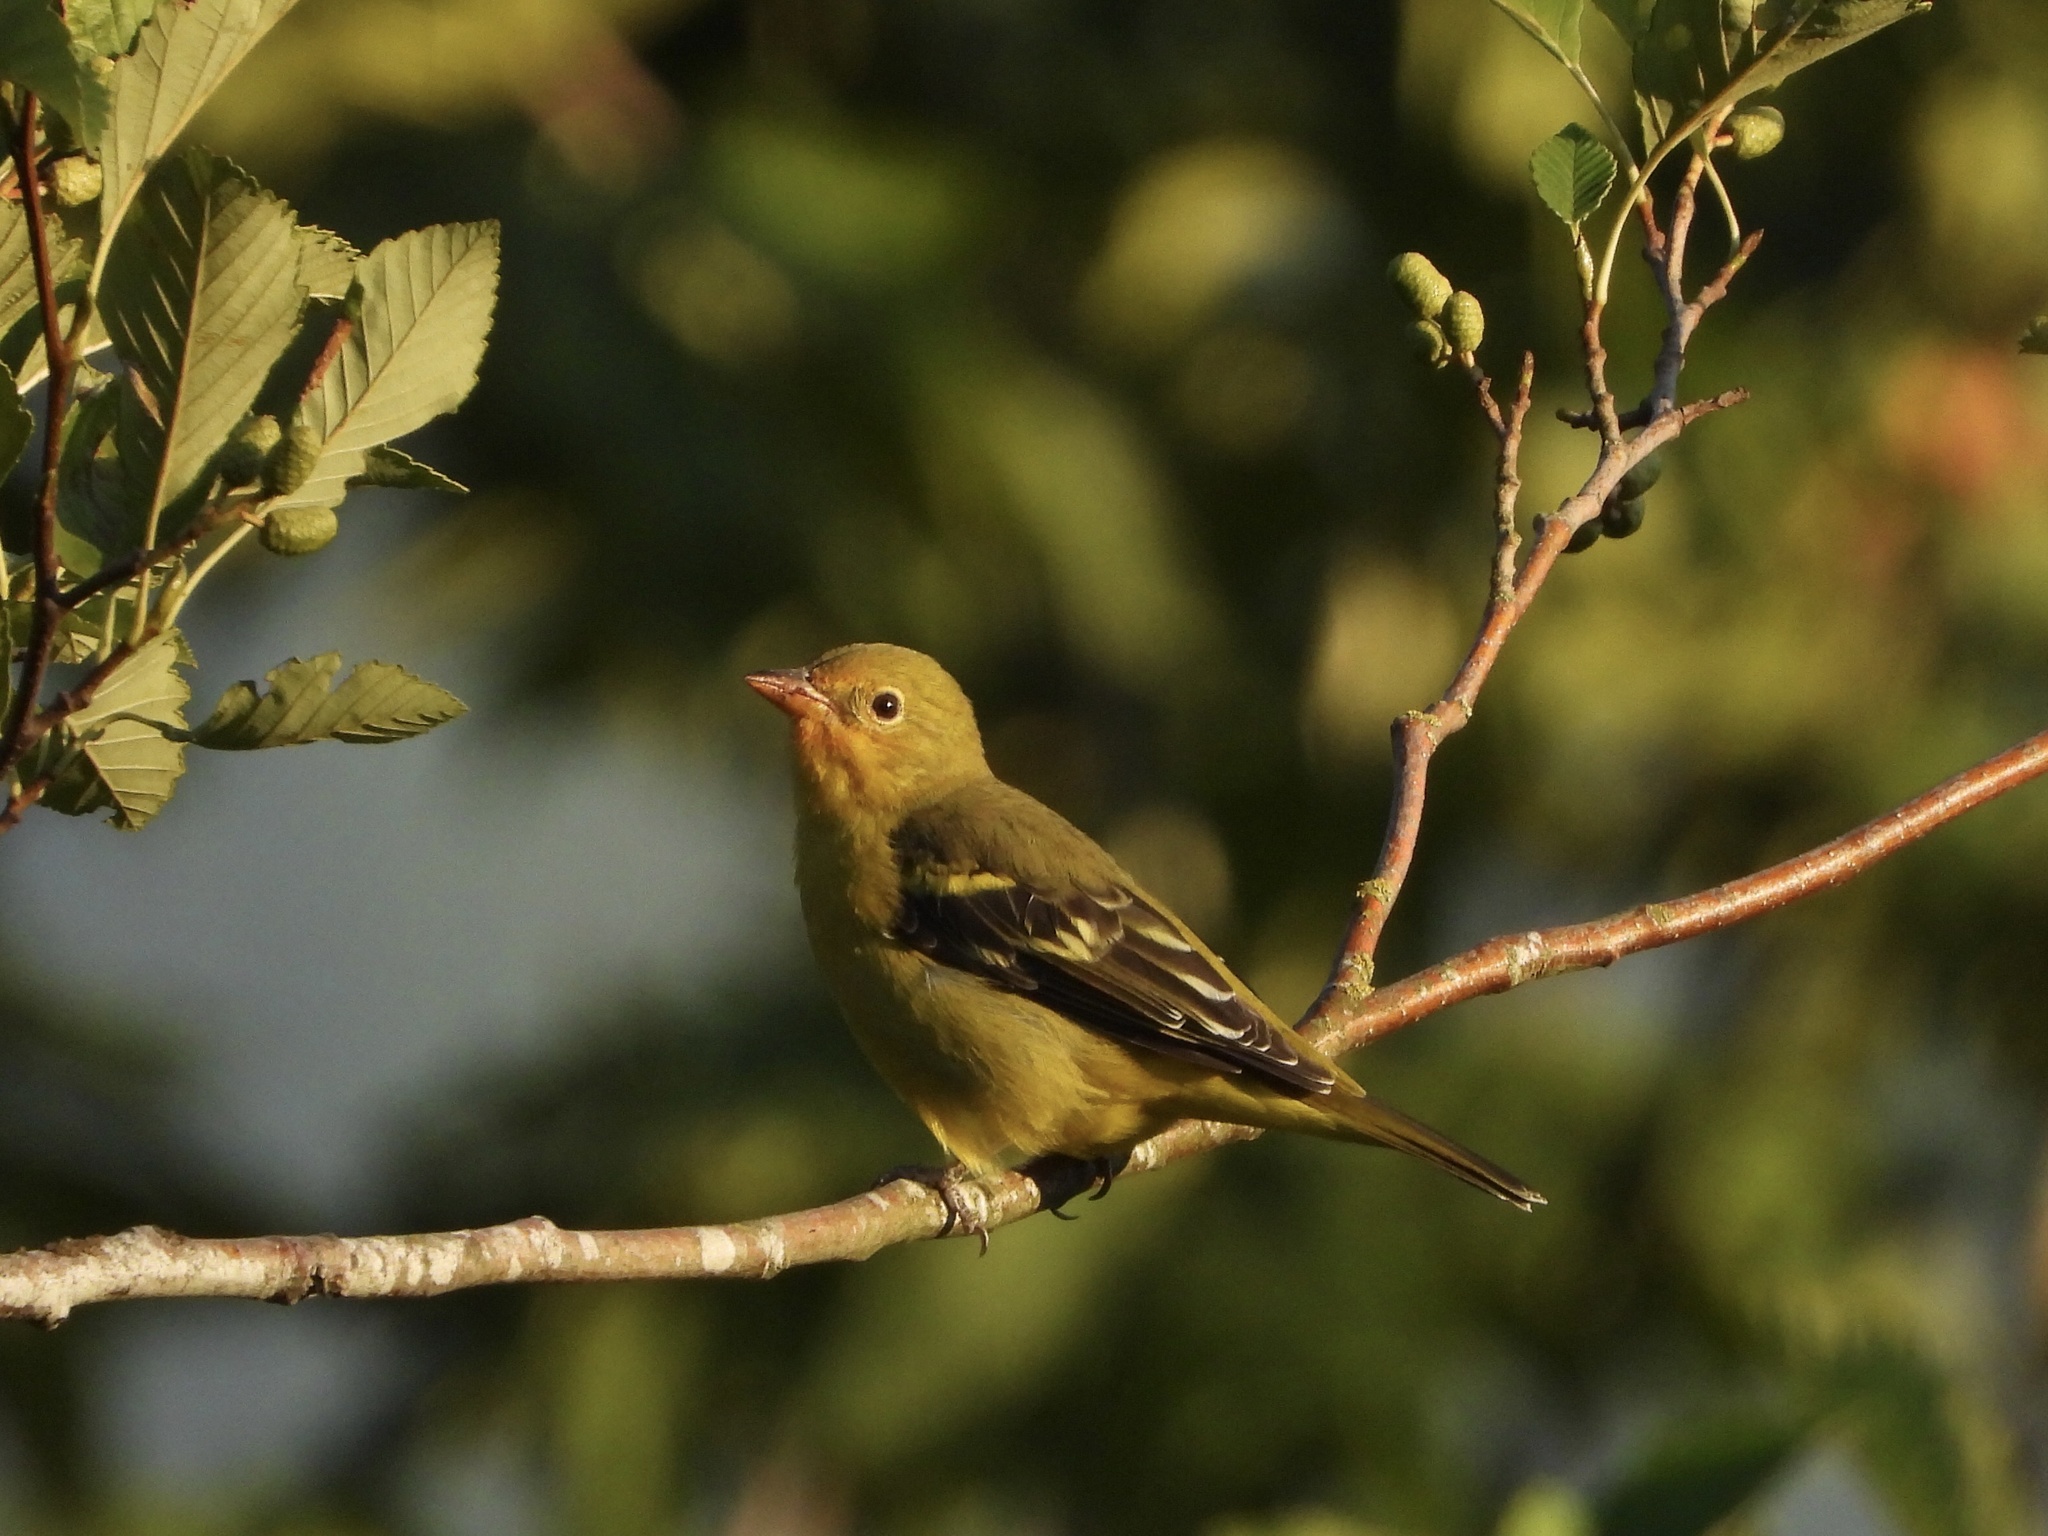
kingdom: Animalia
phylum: Chordata
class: Aves
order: Passeriformes
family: Cardinalidae
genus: Piranga
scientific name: Piranga ludoviciana
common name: Western tanager
